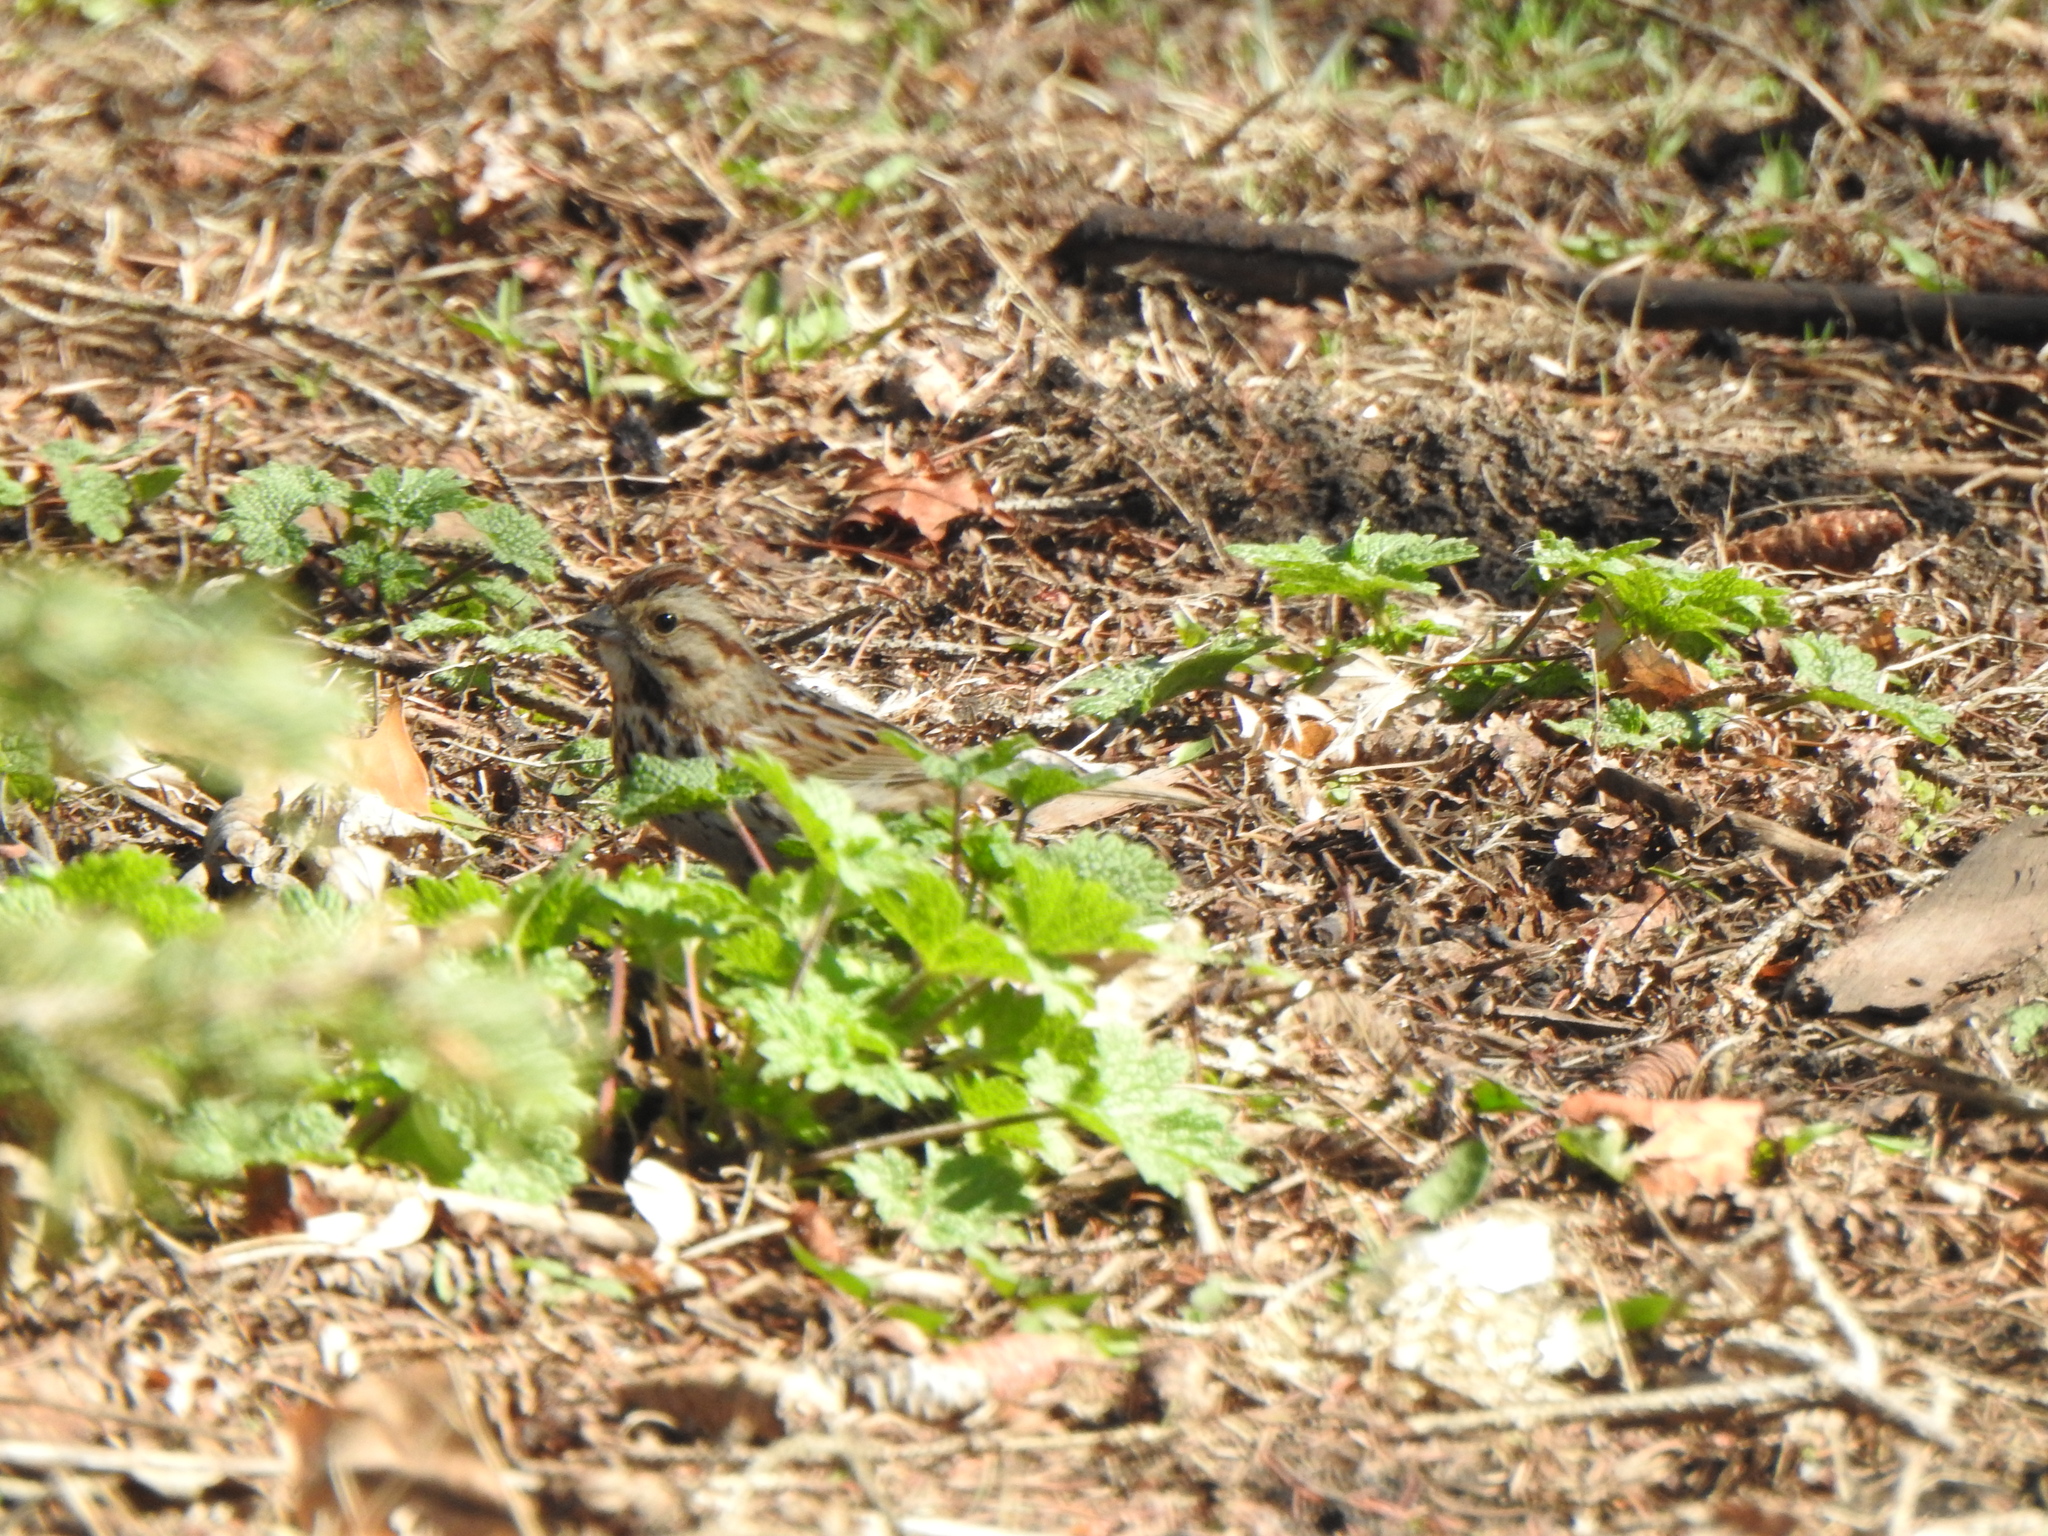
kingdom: Animalia
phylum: Chordata
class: Aves
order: Passeriformes
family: Passerellidae
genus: Melospiza
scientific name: Melospiza melodia
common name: Song sparrow
